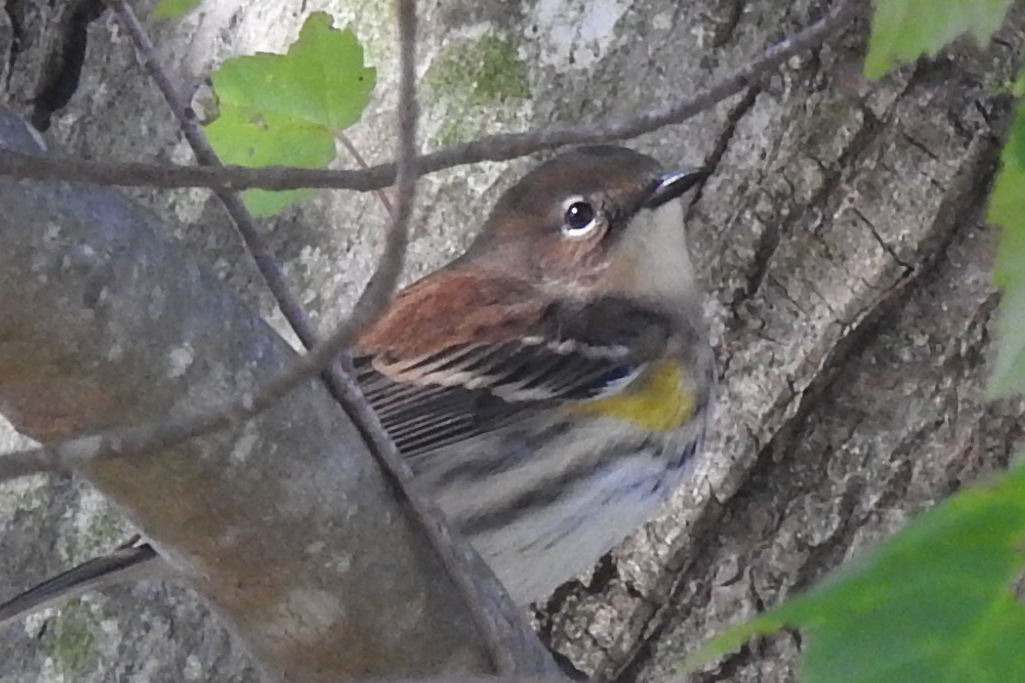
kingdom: Animalia
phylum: Chordata
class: Aves
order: Passeriformes
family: Parulidae
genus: Setophaga
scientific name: Setophaga coronata
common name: Myrtle warbler
